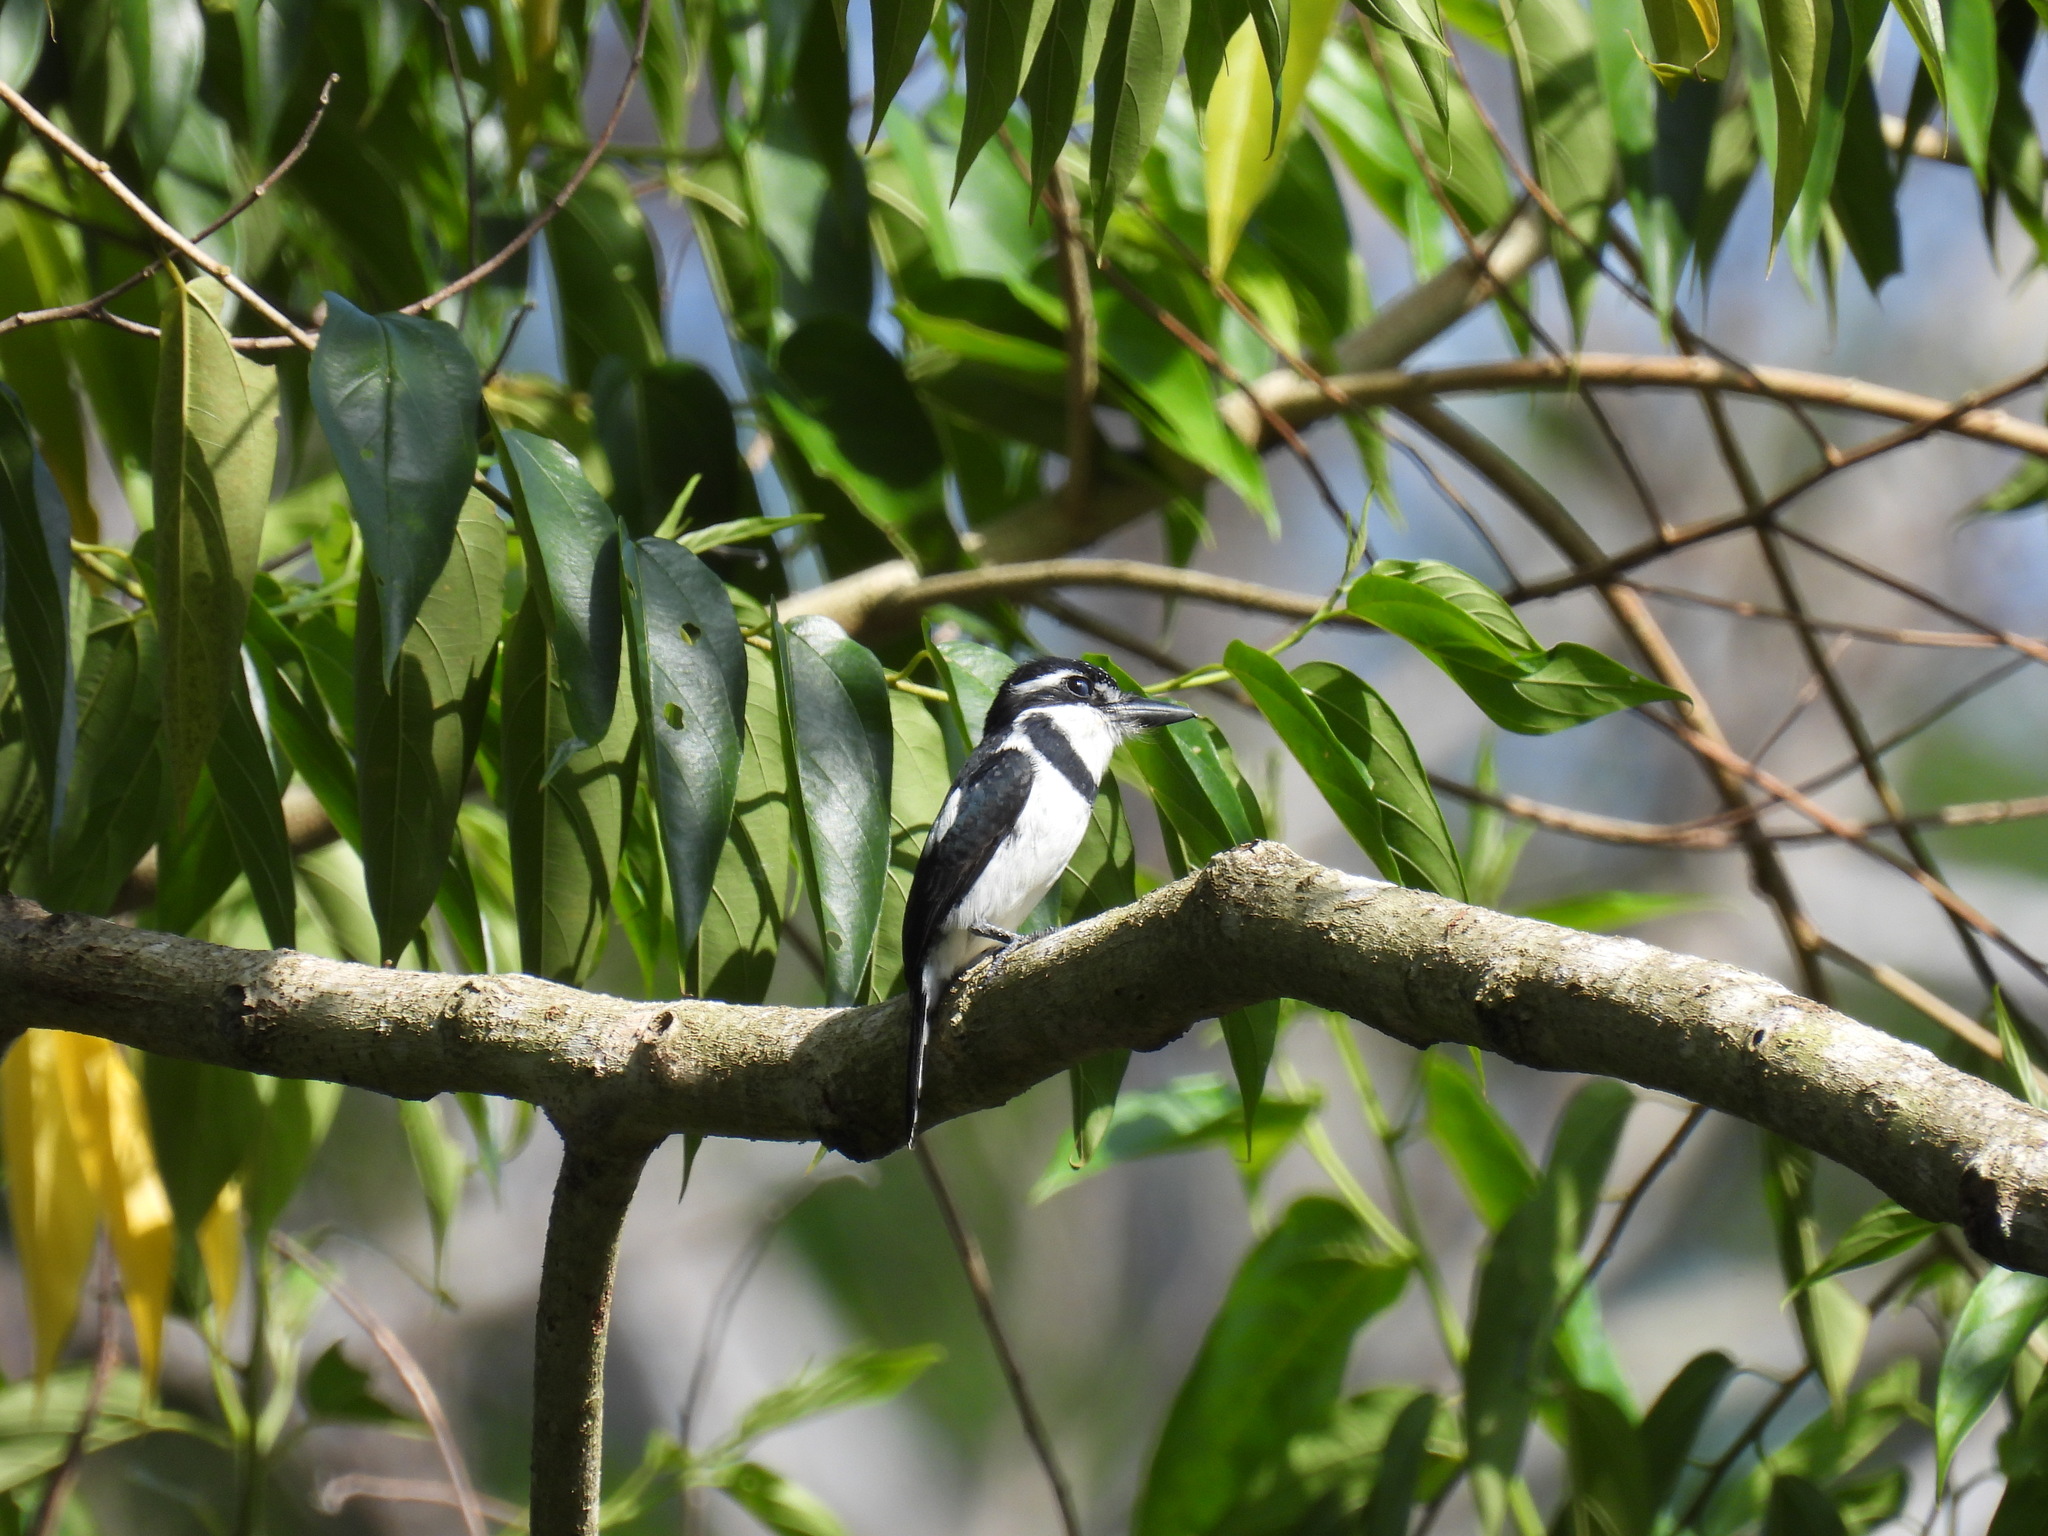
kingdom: Animalia
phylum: Chordata
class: Aves
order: Piciformes
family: Bucconidae
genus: Notharchus
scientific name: Notharchus tectus
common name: Pied puffbird
